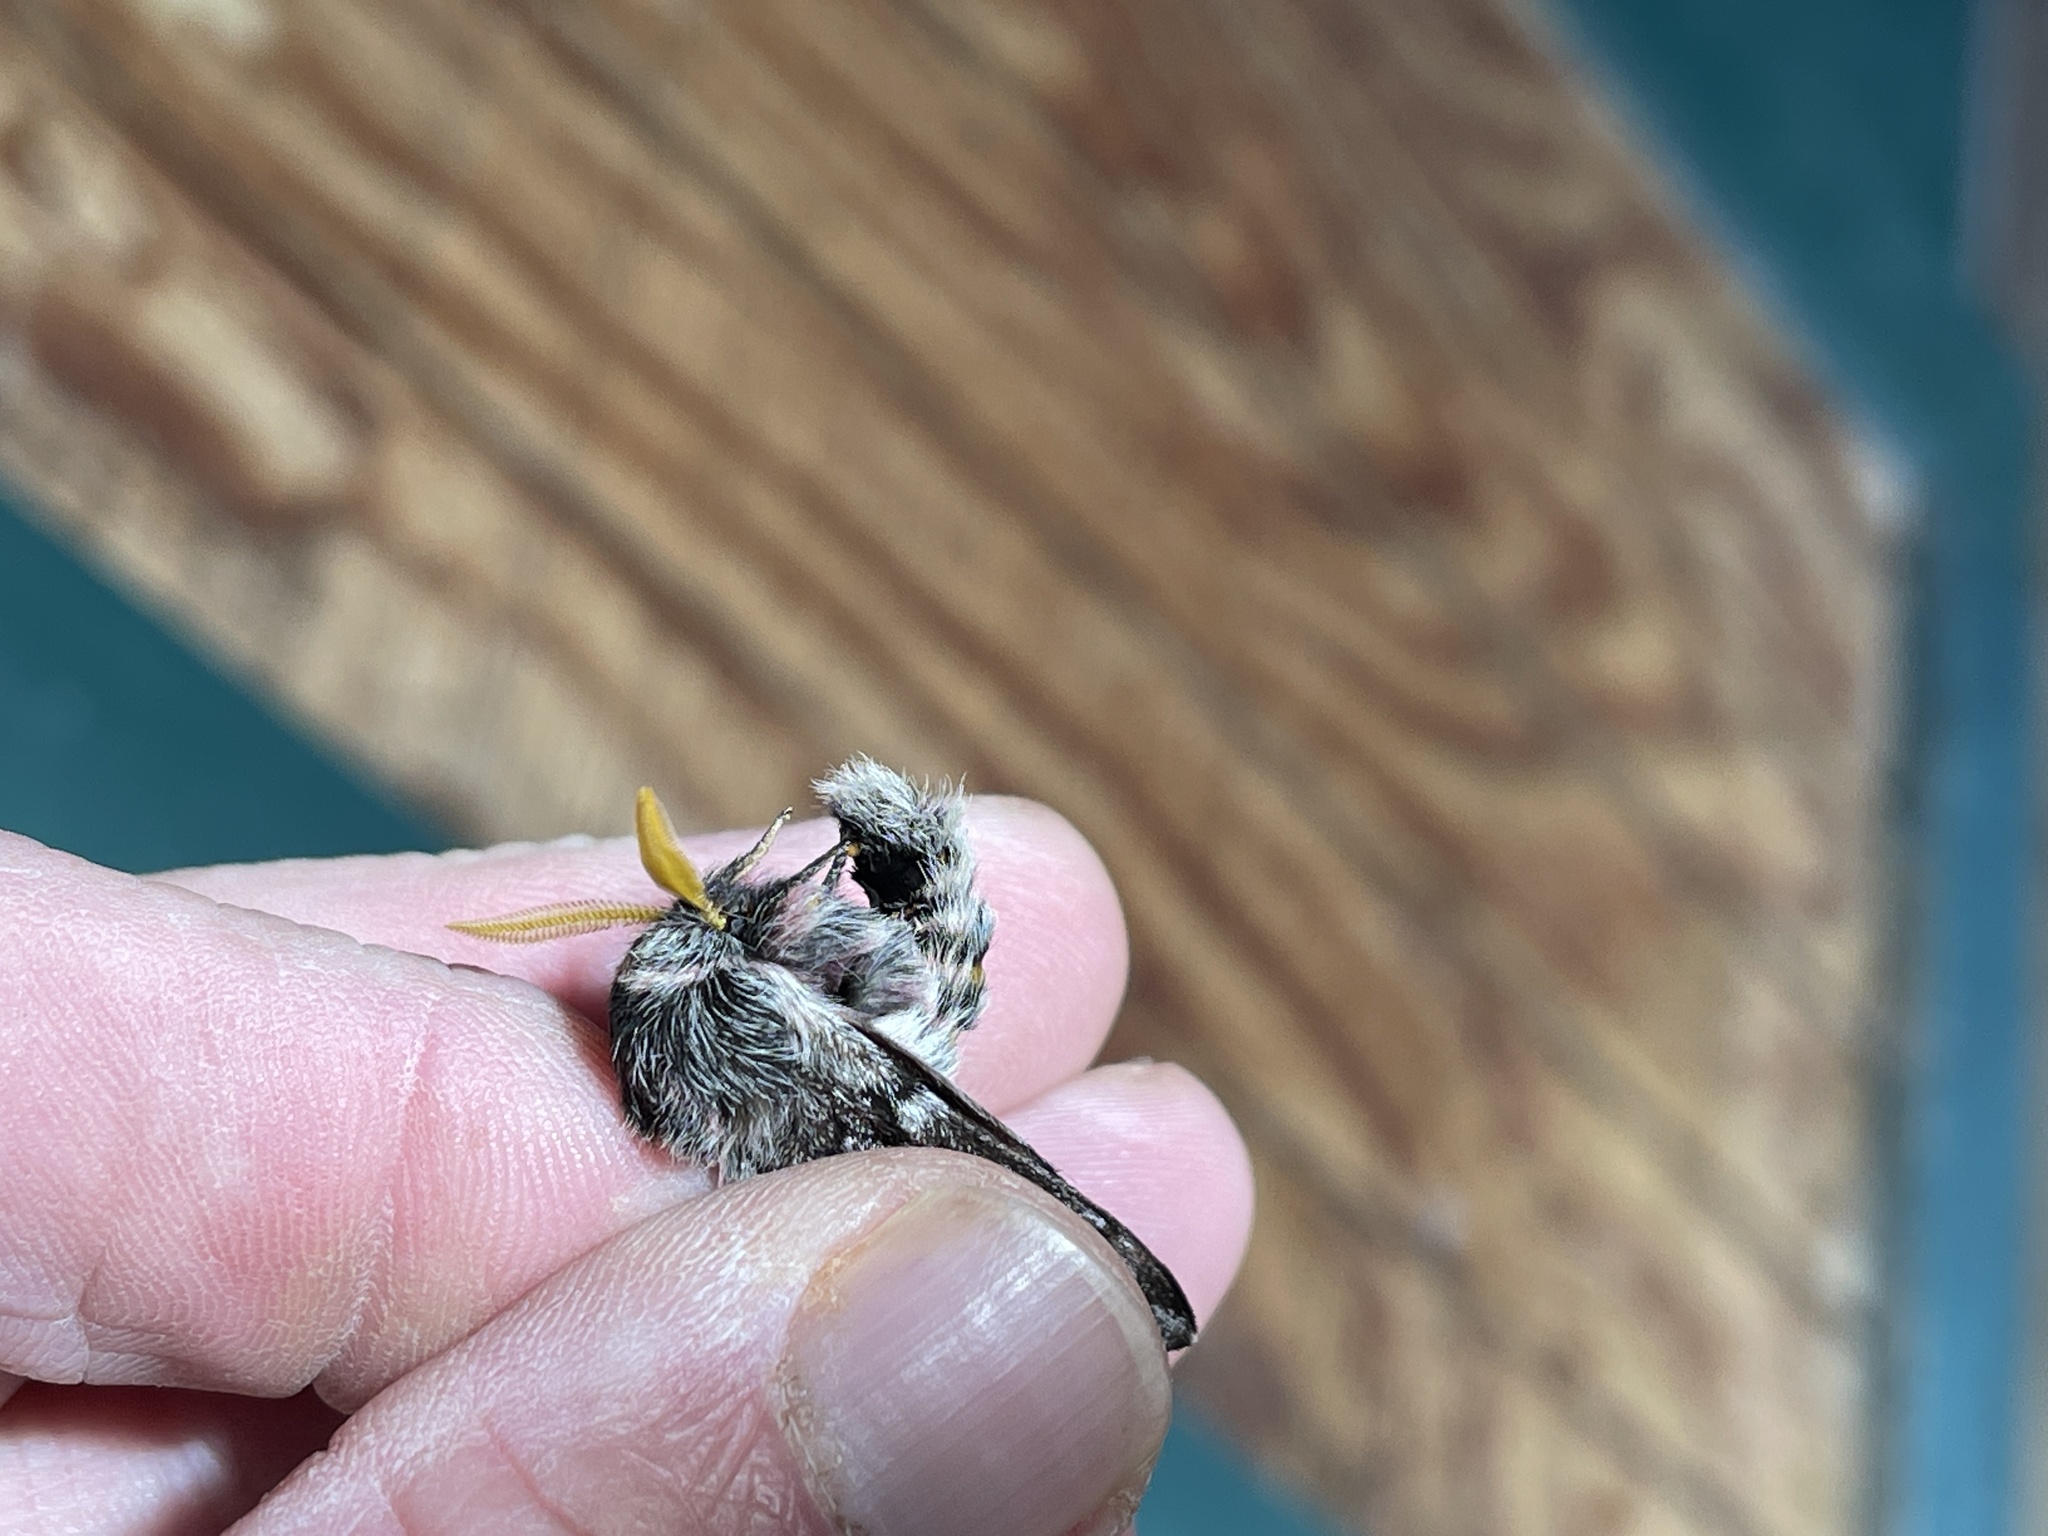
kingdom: Animalia
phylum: Arthropoda
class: Insecta
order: Lepidoptera
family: Saturniidae
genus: Coloradia
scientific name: Coloradia pandora
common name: Pandora pinemoth
